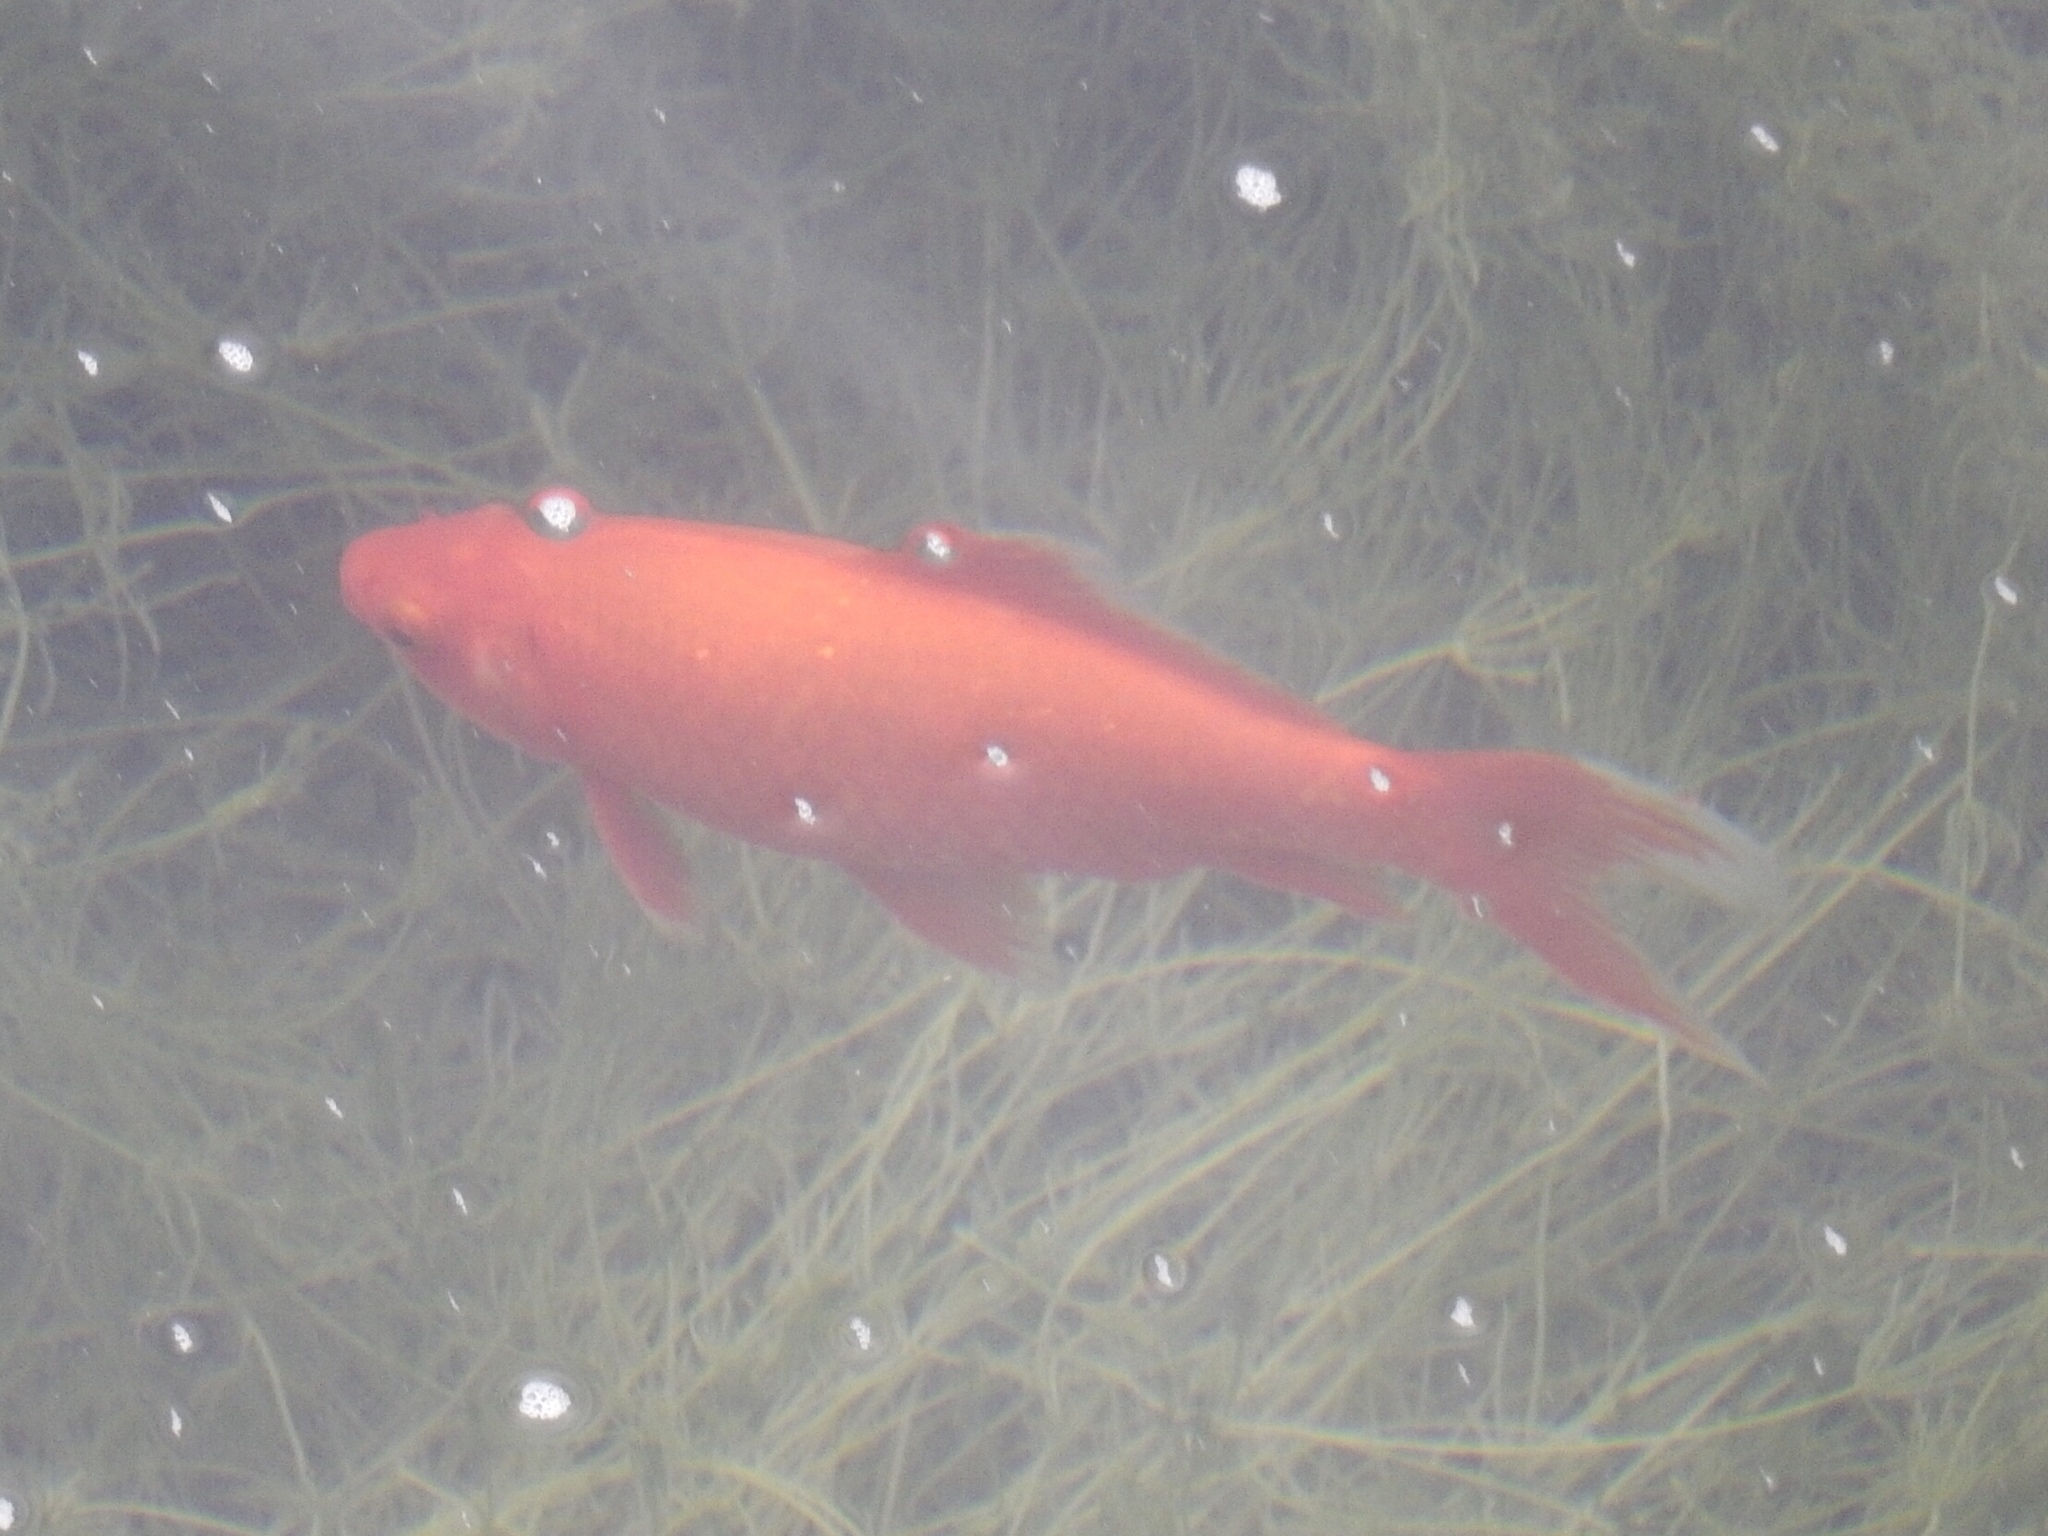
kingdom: Animalia
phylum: Chordata
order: Cypriniformes
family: Cyprinidae
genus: Carassius
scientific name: Carassius auratus
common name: Goldfish
